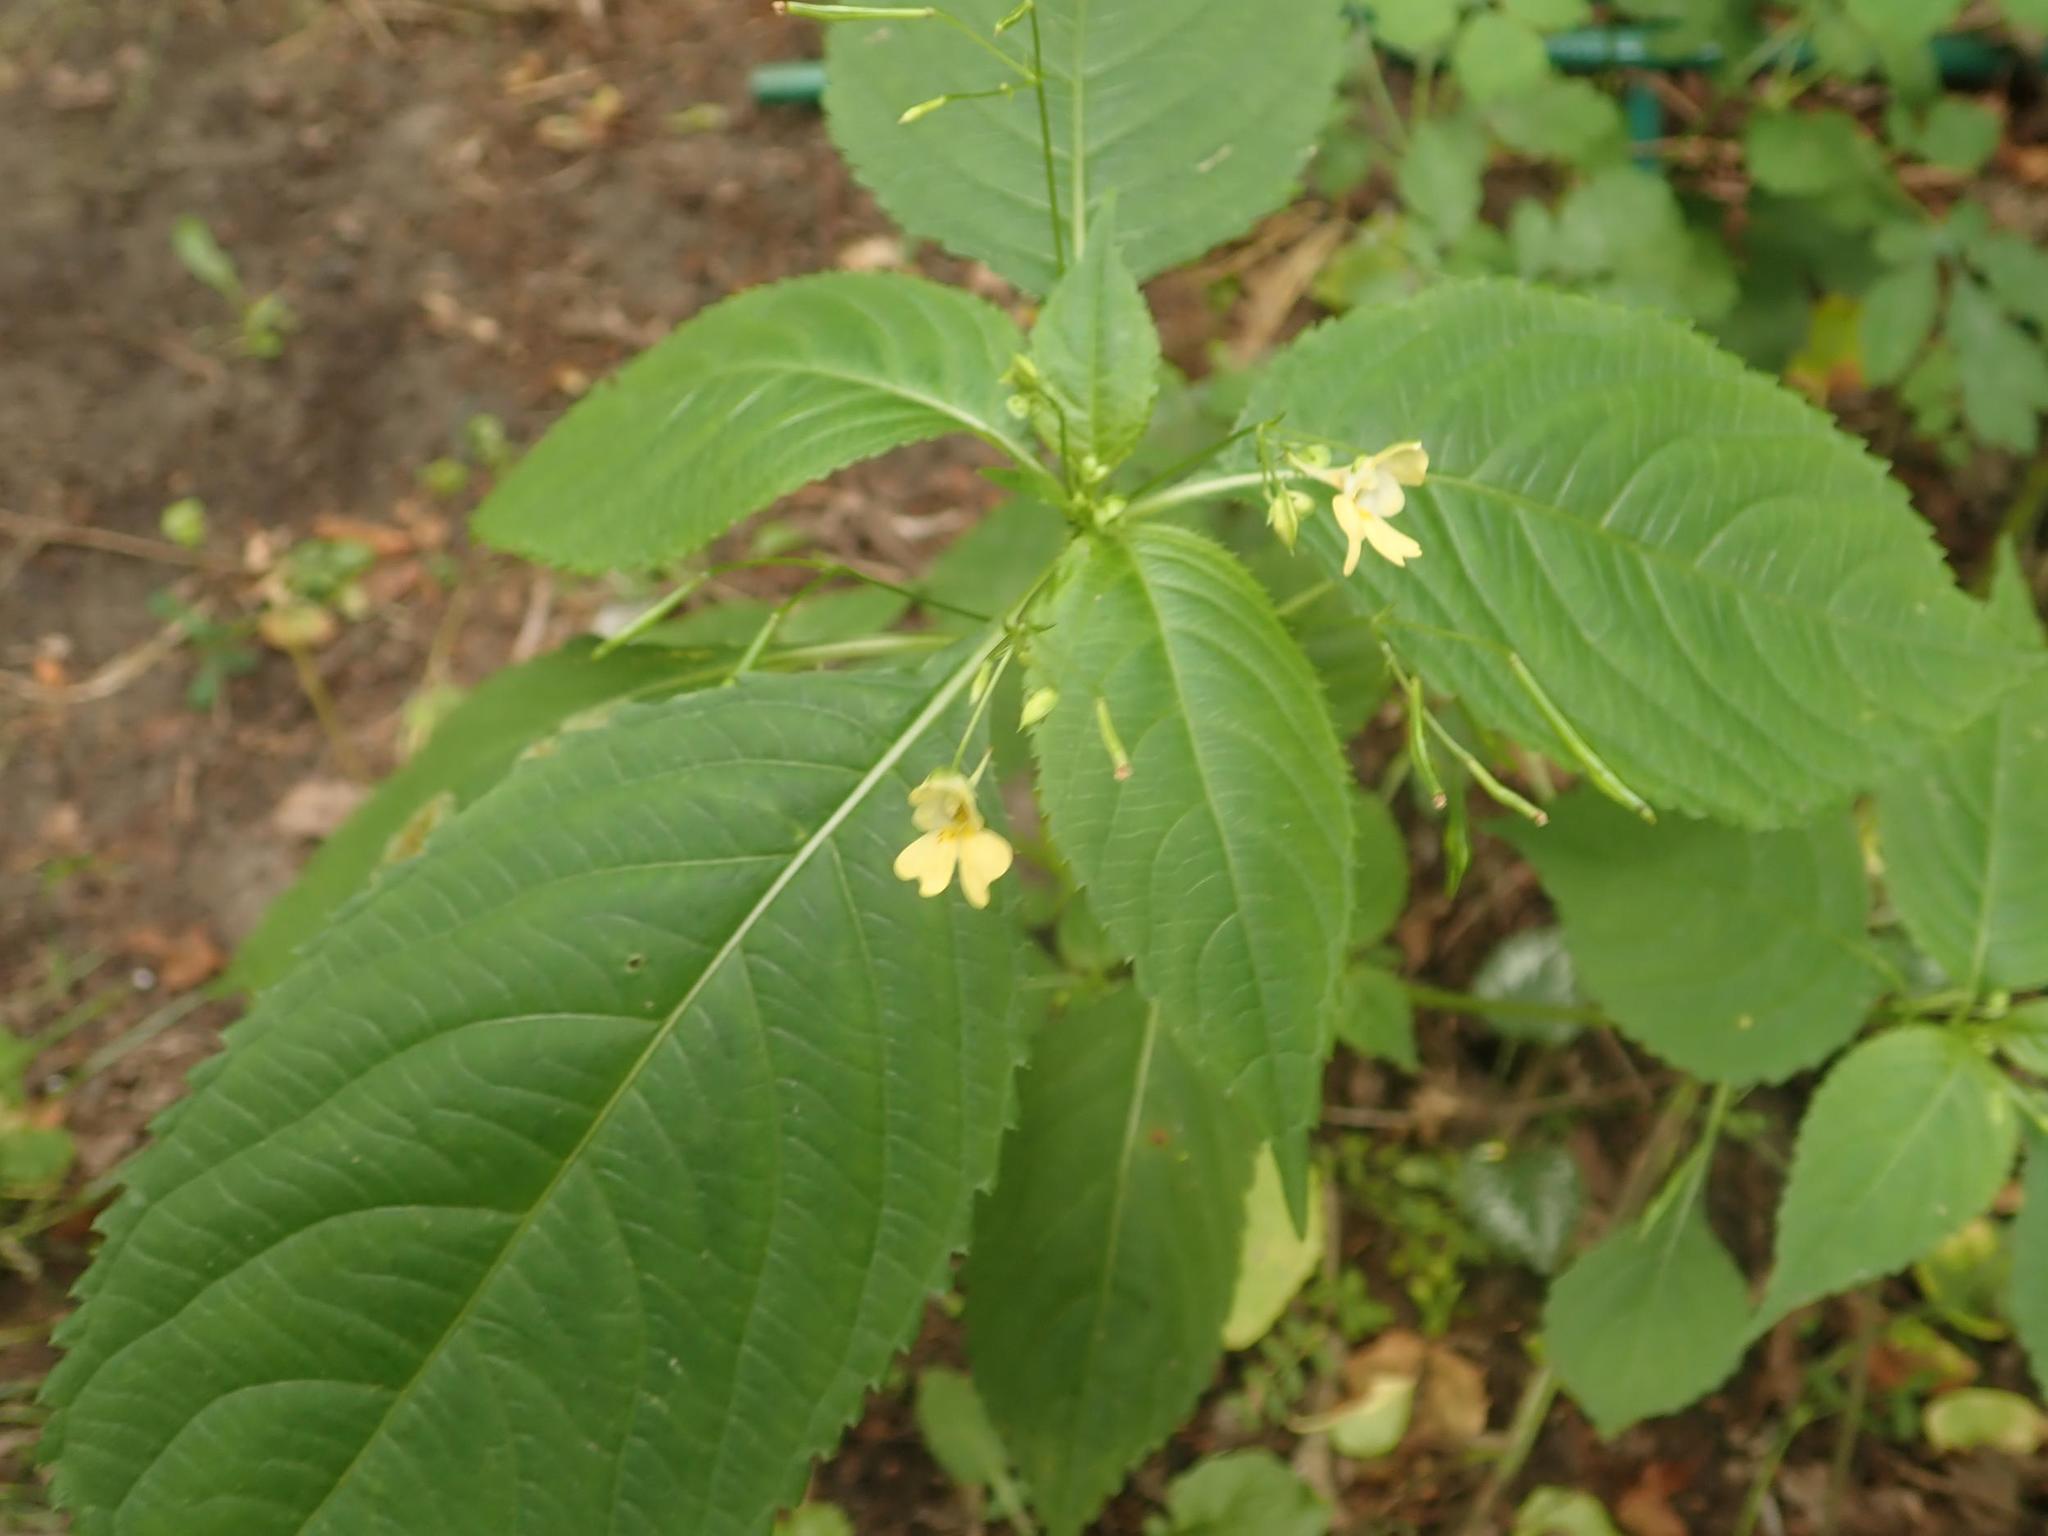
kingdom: Plantae
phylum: Tracheophyta
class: Magnoliopsida
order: Ericales
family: Balsaminaceae
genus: Impatiens
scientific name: Impatiens parviflora
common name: Small balsam
